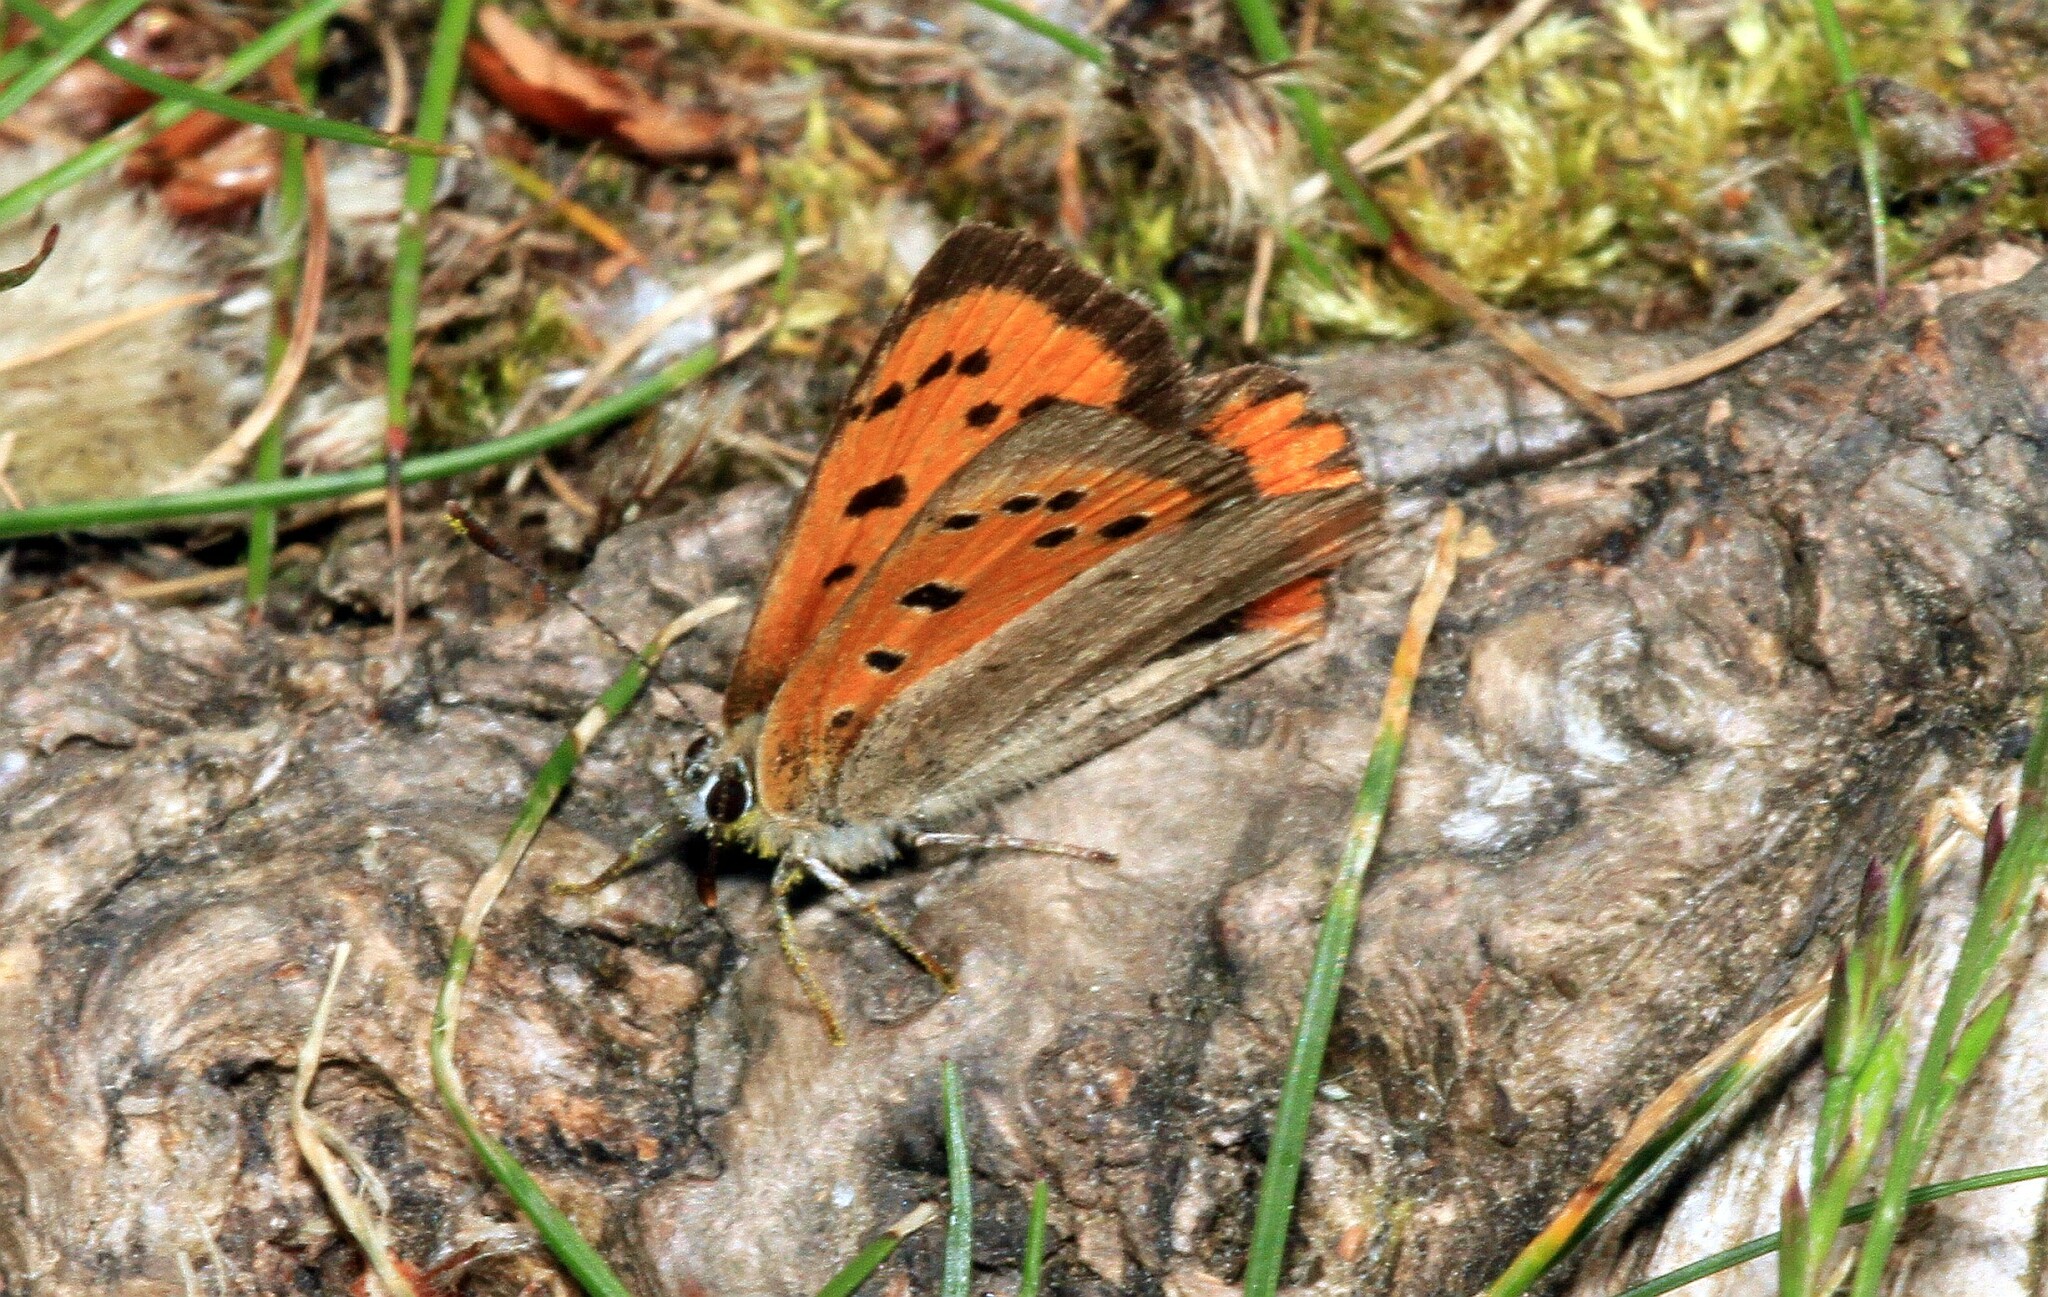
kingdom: Animalia
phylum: Arthropoda
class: Insecta
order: Lepidoptera
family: Lycaenidae
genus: Lycaena
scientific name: Lycaena phlaeas
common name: Small copper
